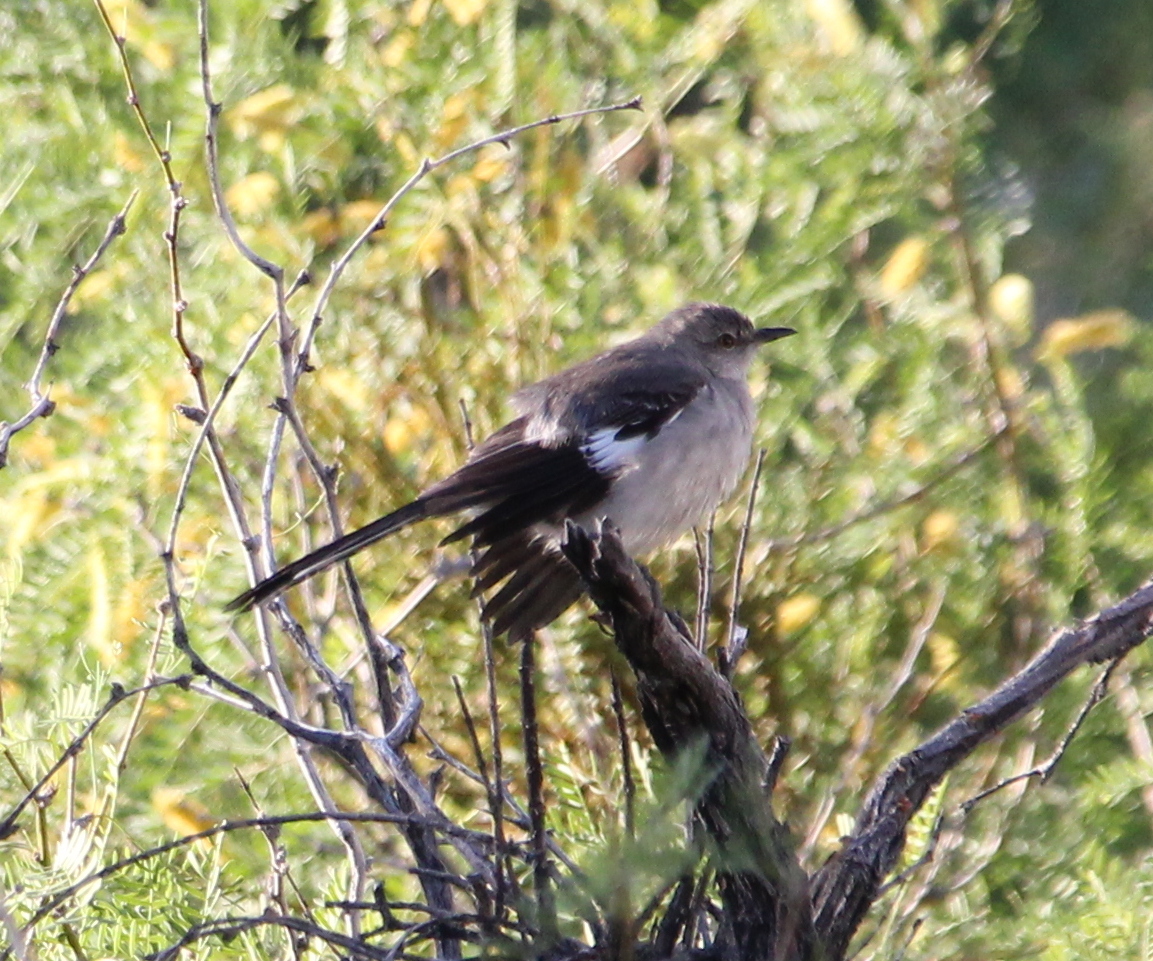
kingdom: Animalia
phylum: Chordata
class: Aves
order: Passeriformes
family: Mimidae
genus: Mimus
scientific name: Mimus polyglottos
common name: Northern mockingbird
